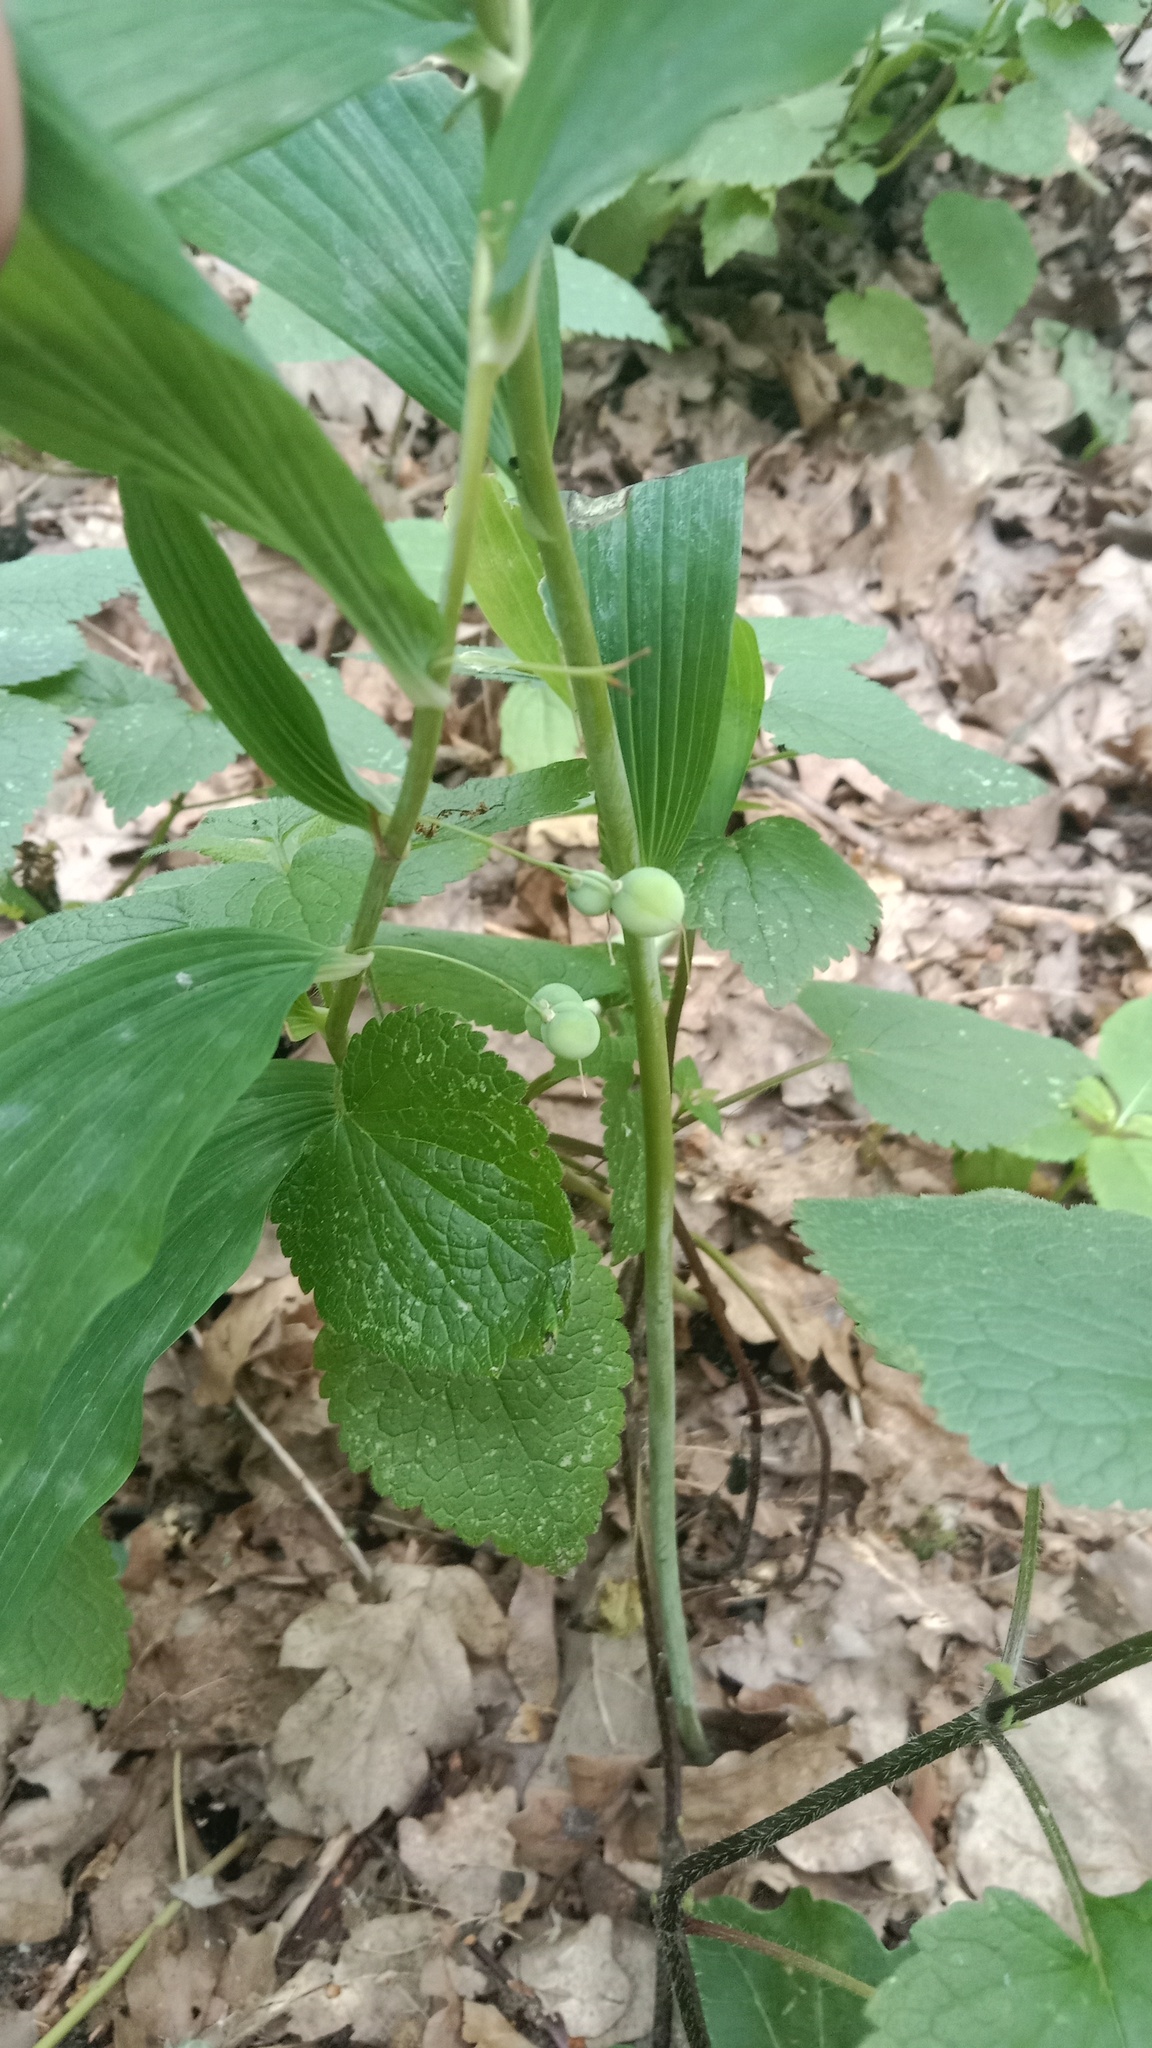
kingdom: Plantae
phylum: Tracheophyta
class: Liliopsida
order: Asparagales
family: Asparagaceae
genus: Polygonatum
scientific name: Polygonatum odoratum
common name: Angular solomon's-seal
